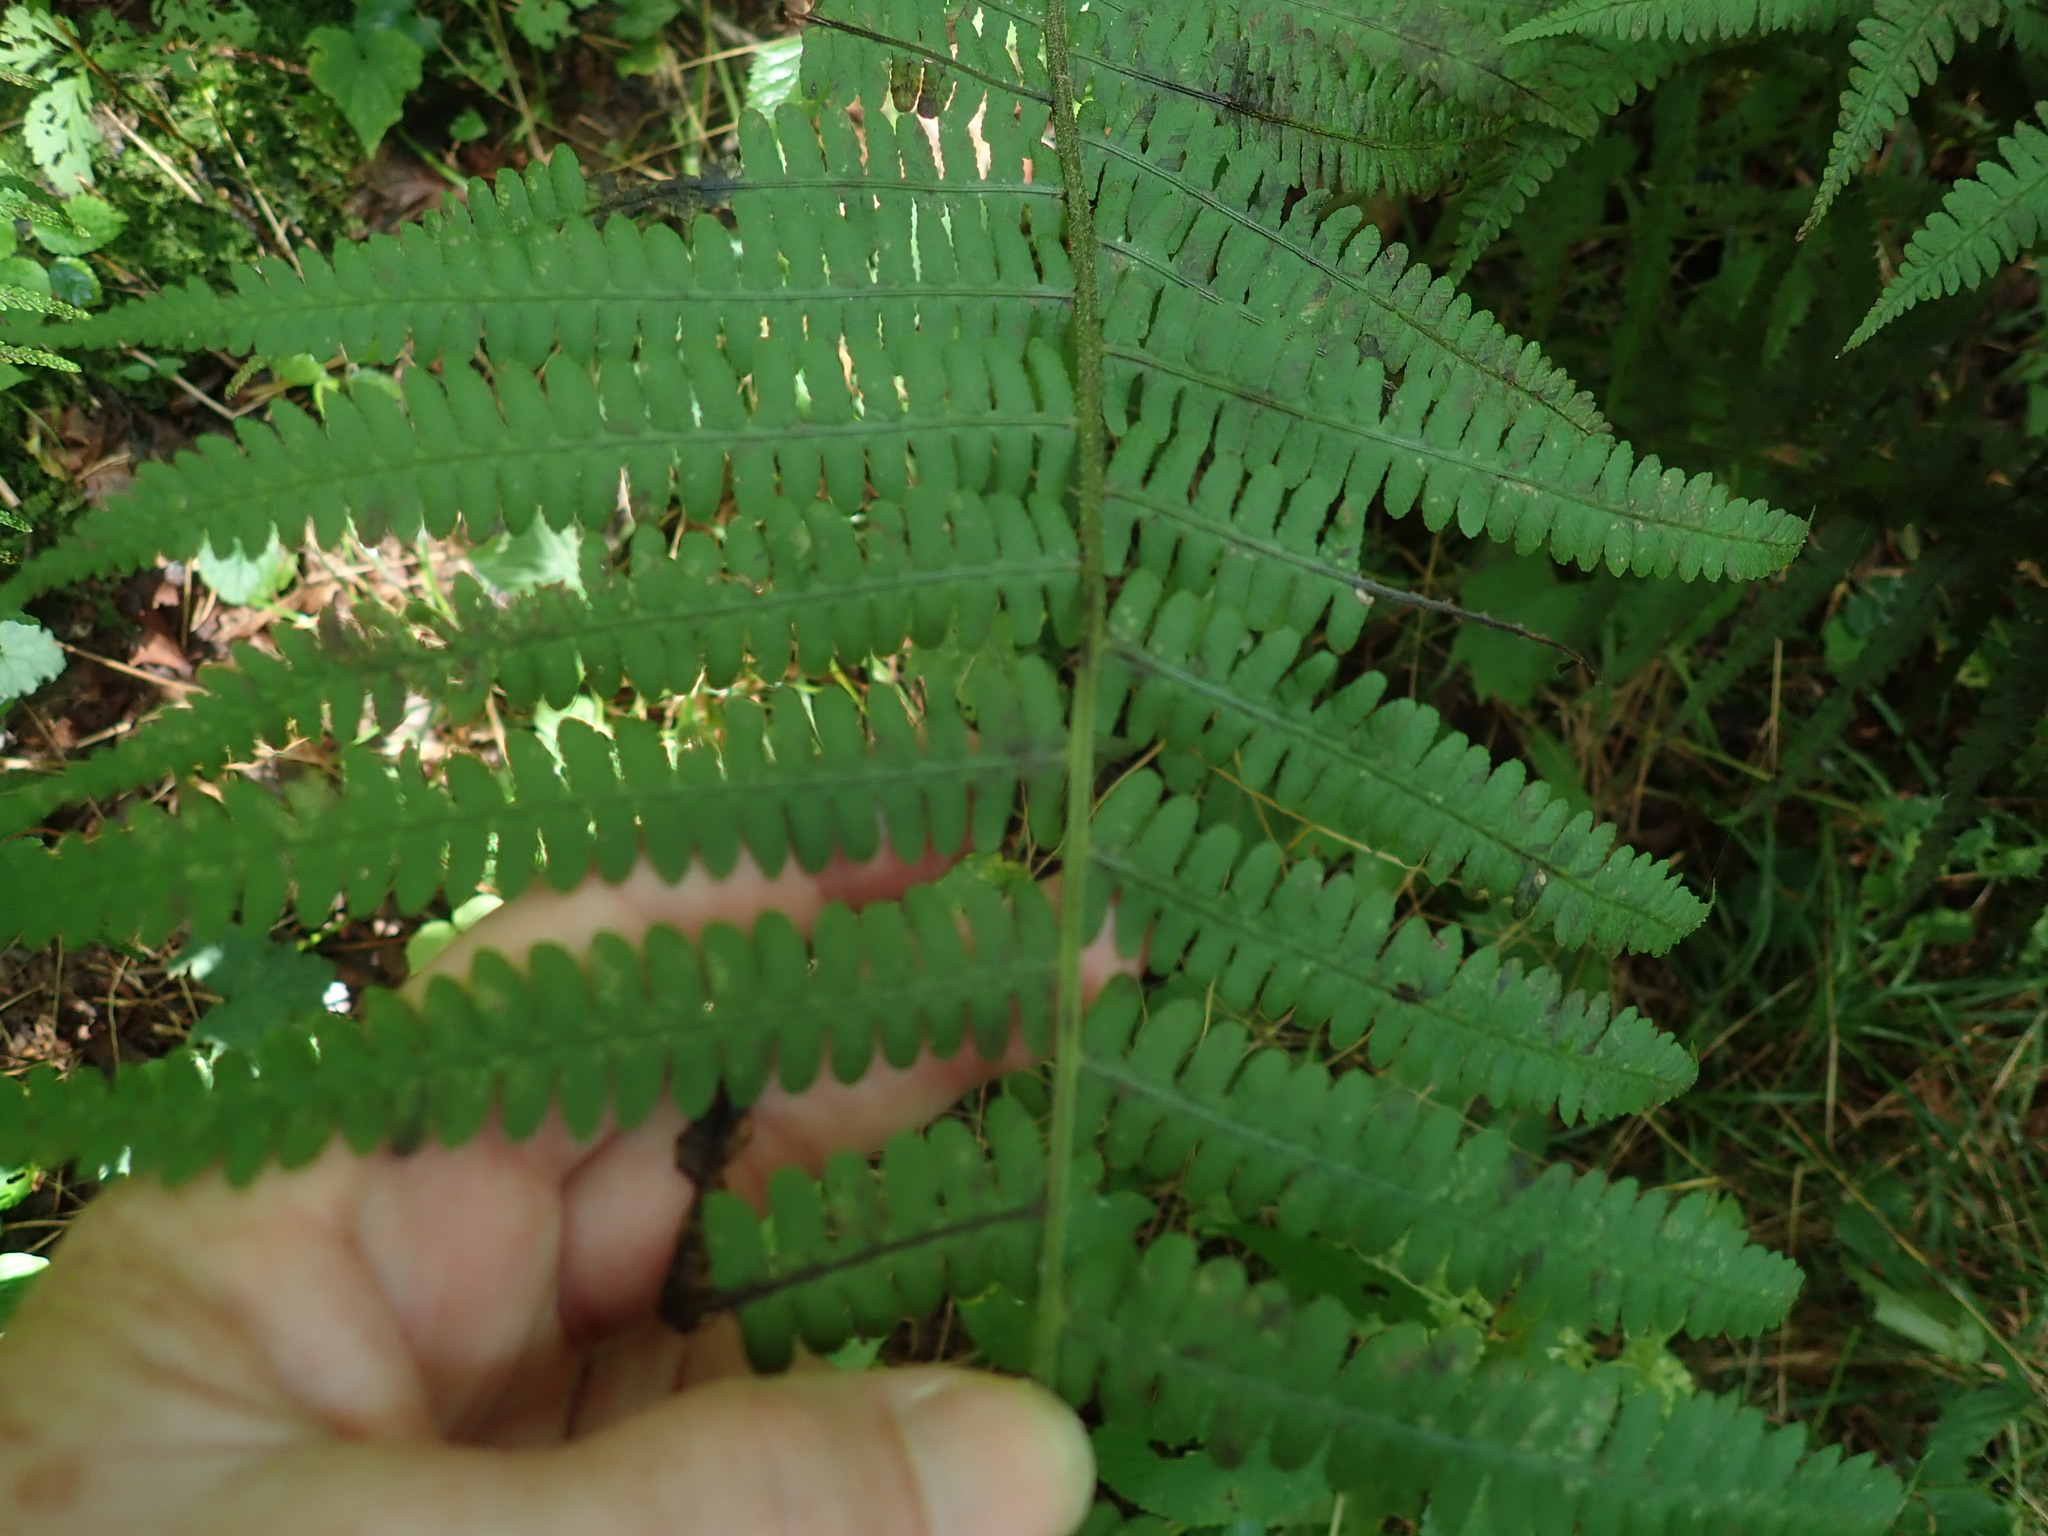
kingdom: Plantae
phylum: Tracheophyta
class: Polypodiopsida
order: Polypodiales
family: Athyriaceae
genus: Deparia
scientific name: Deparia acrostichoides
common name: Silver false spleenwort
